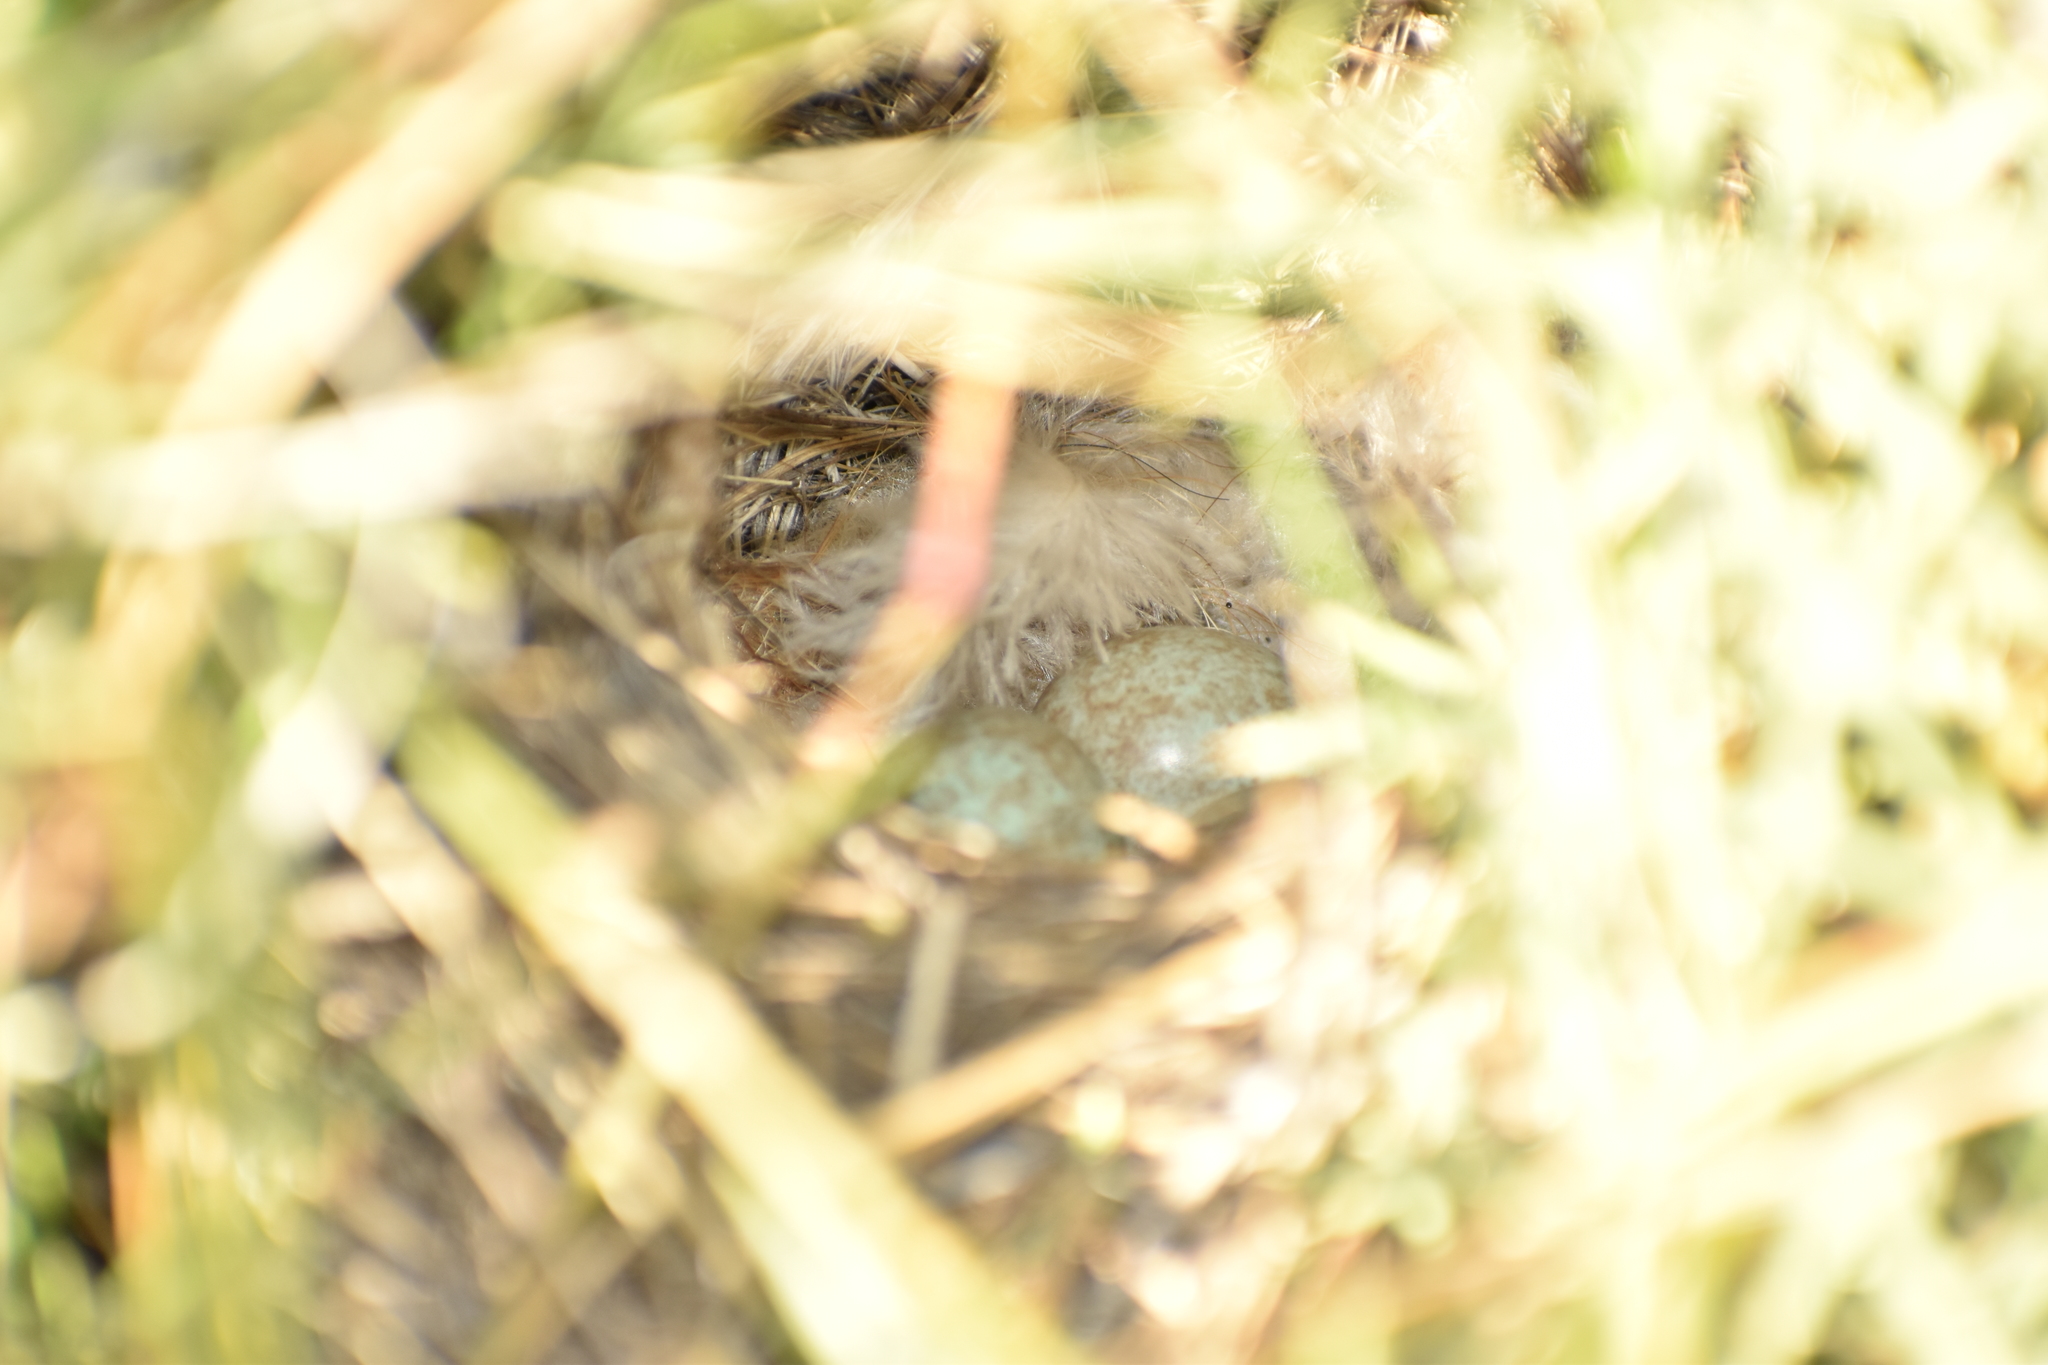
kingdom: Animalia
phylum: Chordata
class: Aves
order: Passeriformes
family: Passerellidae
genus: Zonotrichia
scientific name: Zonotrichia capensis
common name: Rufous-collared sparrow
